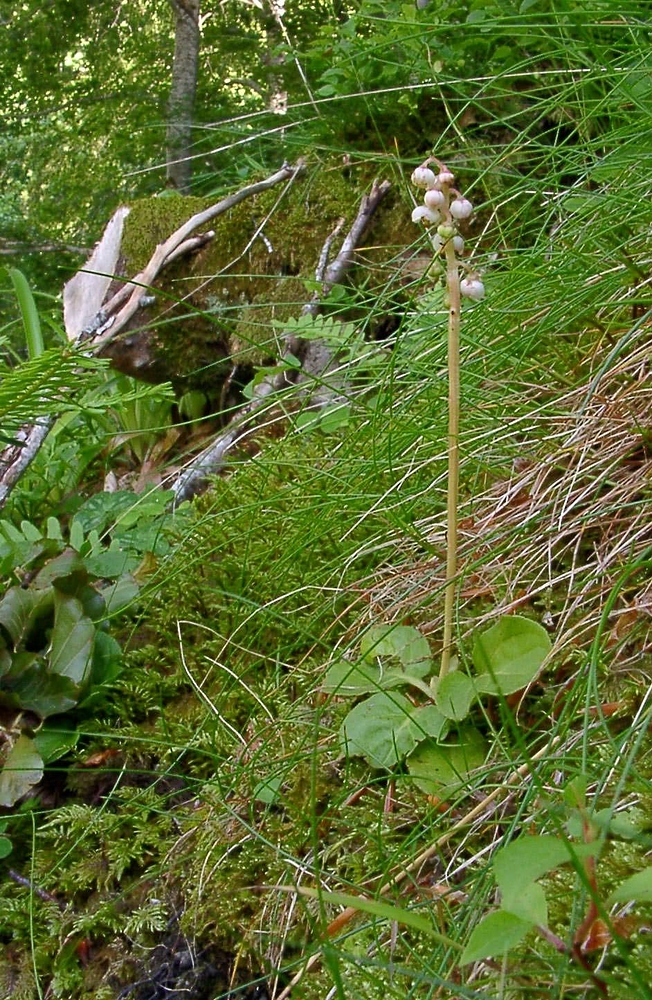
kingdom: Plantae
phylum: Tracheophyta
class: Magnoliopsida
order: Ericales
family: Ericaceae
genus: Pyrola
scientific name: Pyrola minor
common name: Common wintergreen
